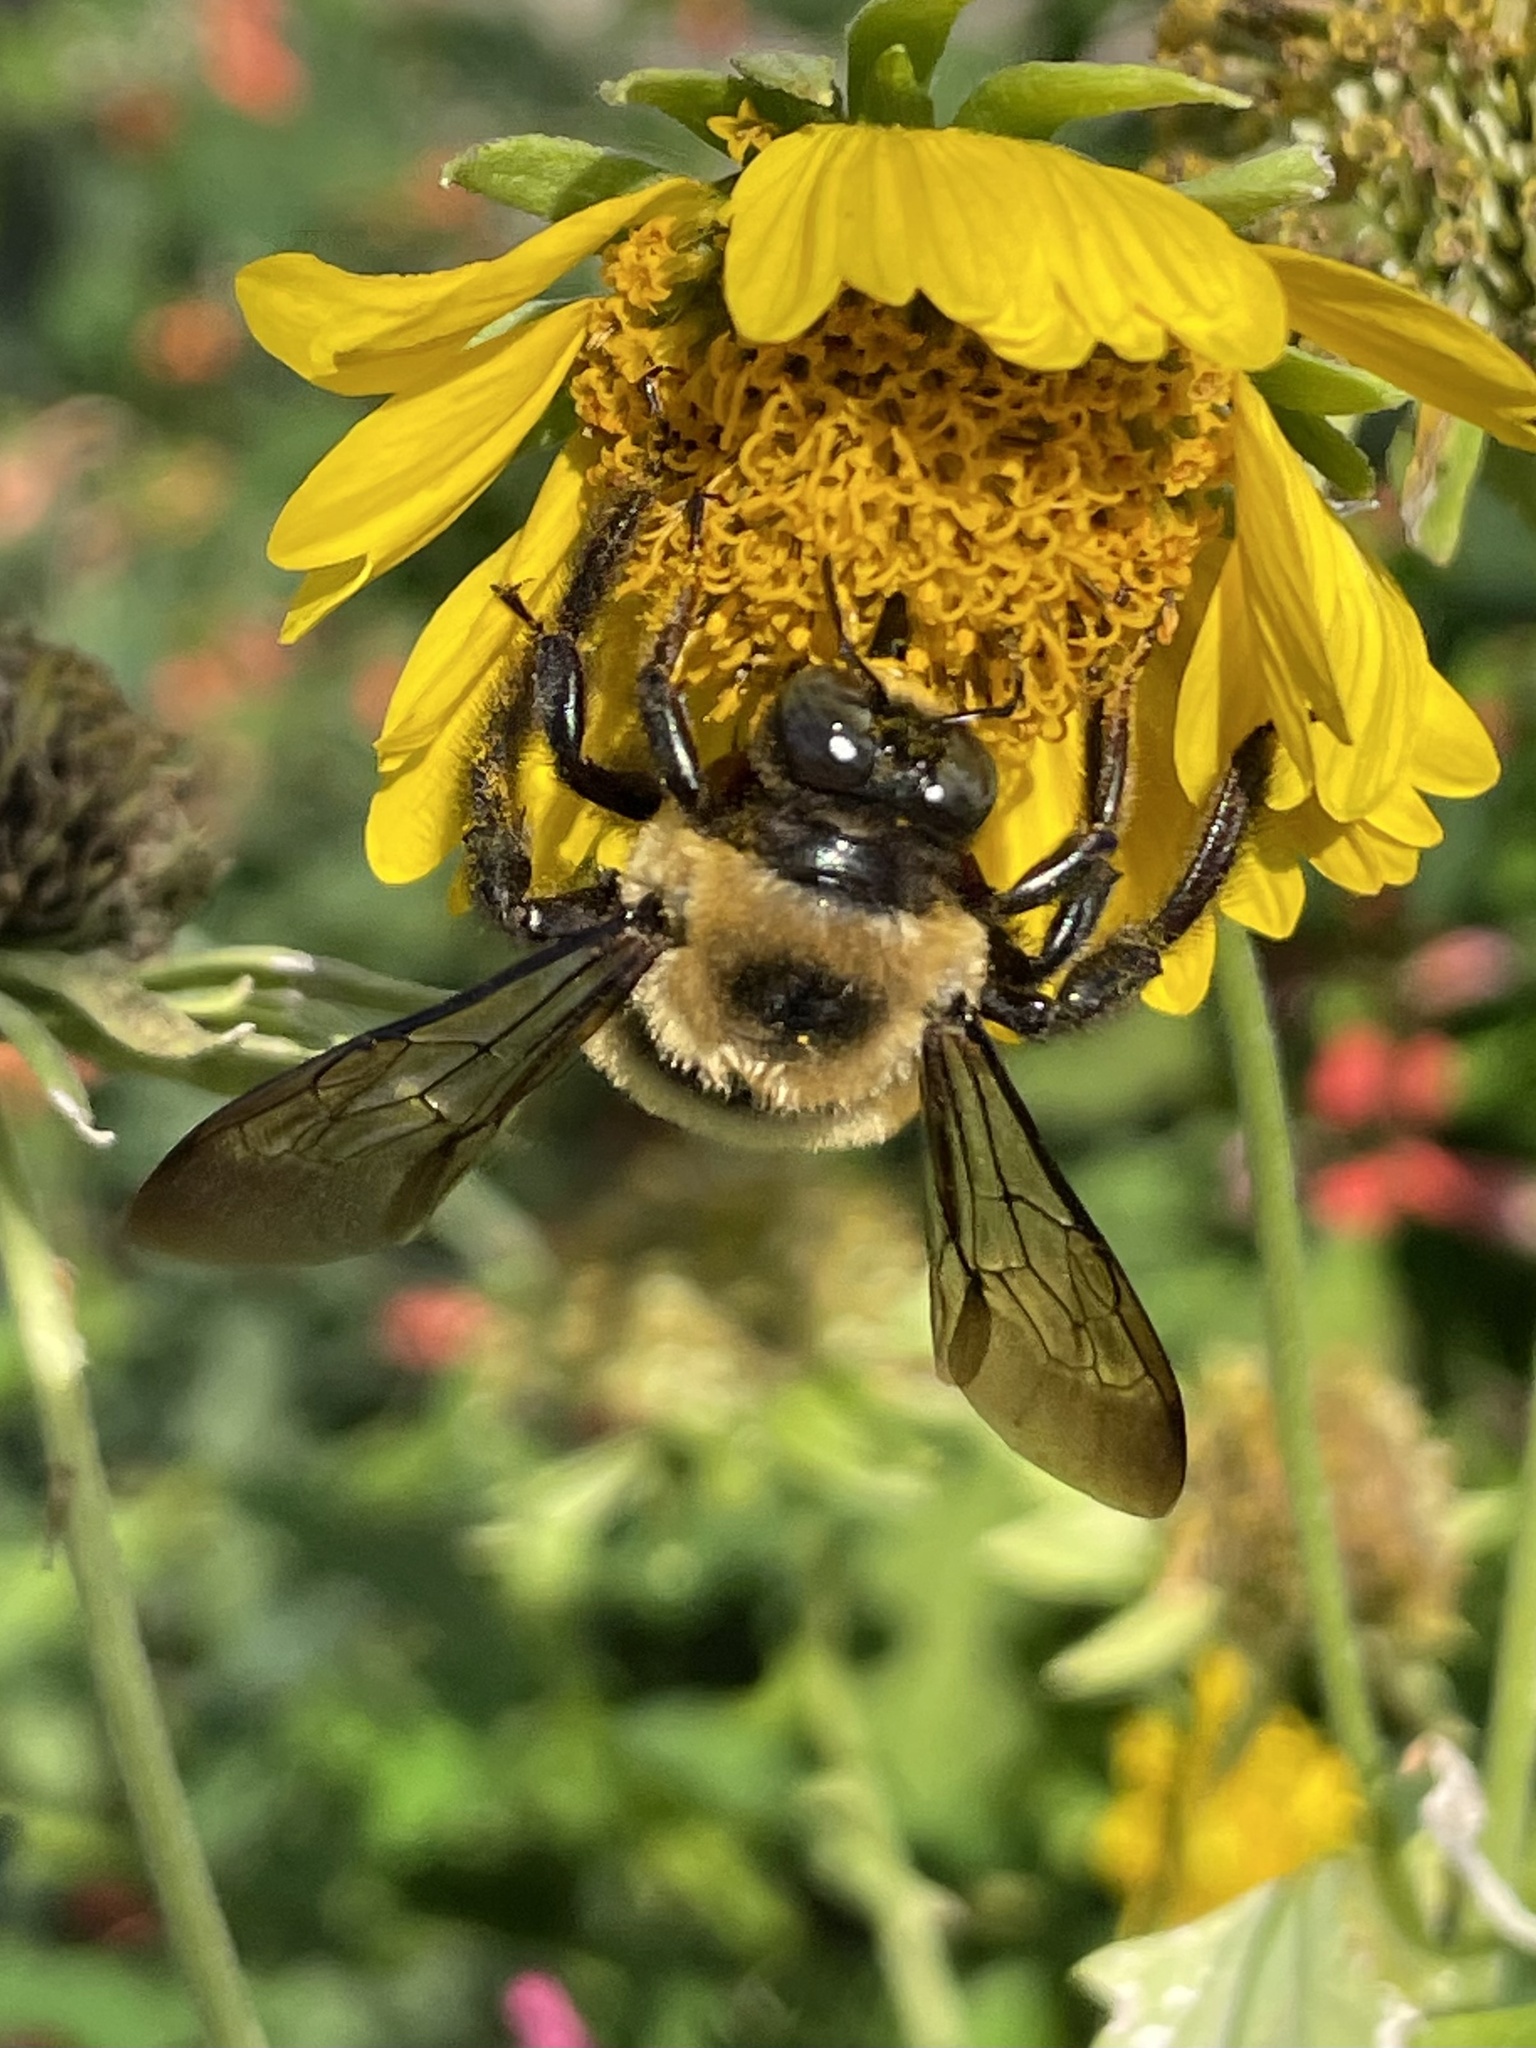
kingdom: Animalia
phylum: Arthropoda
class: Insecta
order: Hymenoptera
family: Apidae
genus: Xylocopa
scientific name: Xylocopa virginica
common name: Carpenter bee
